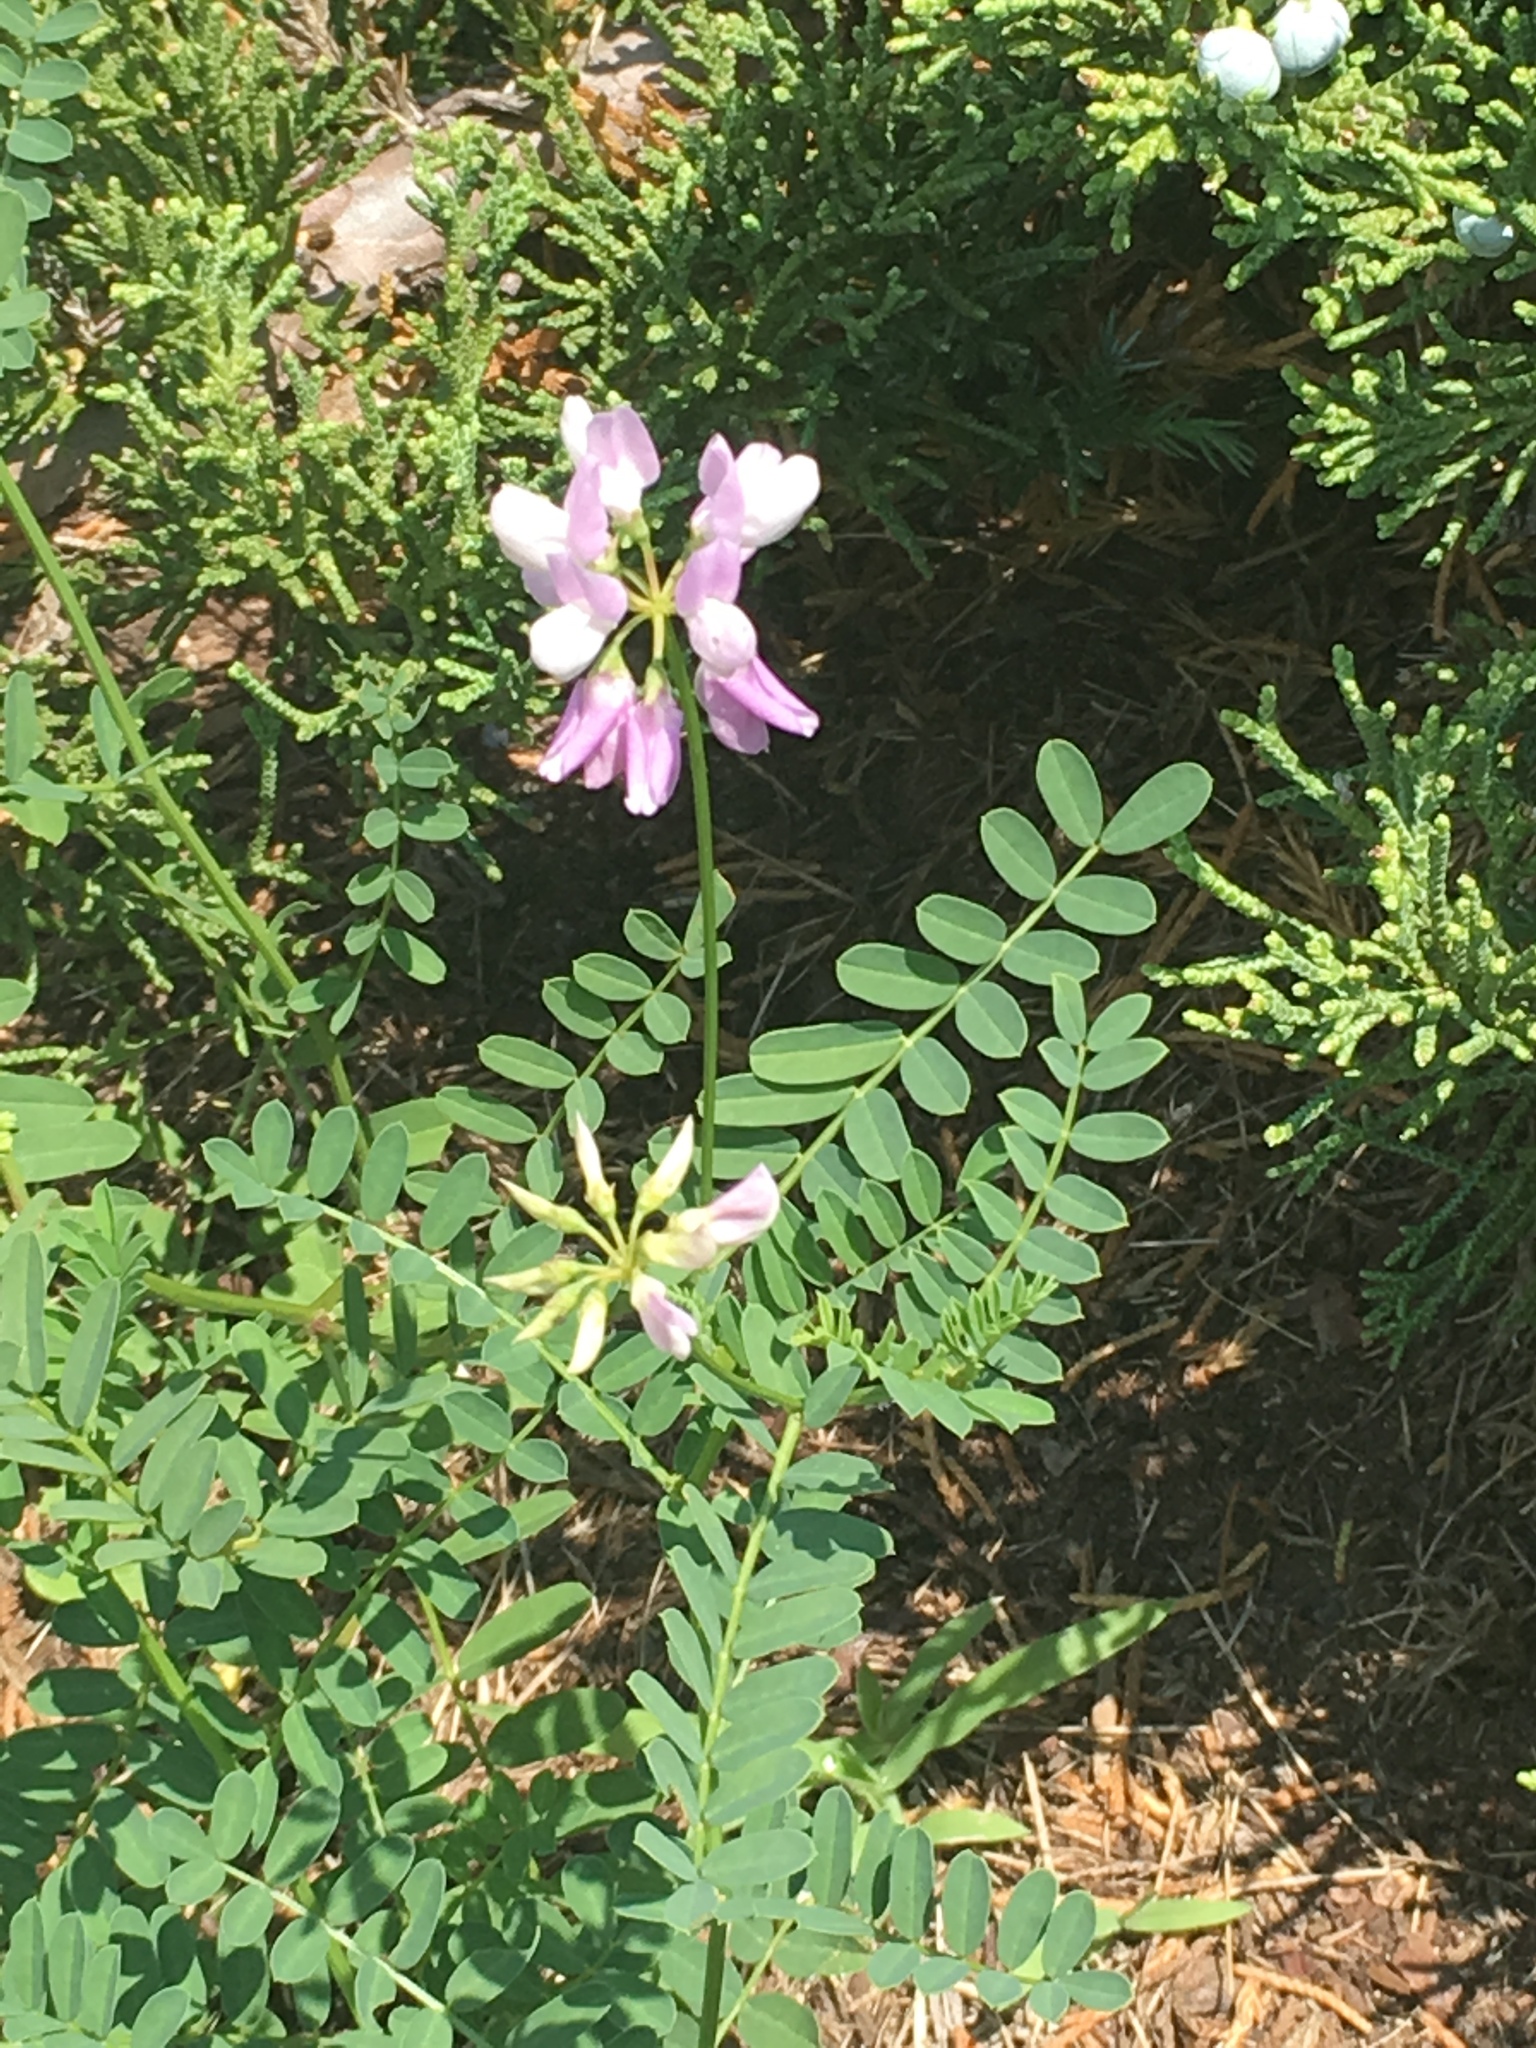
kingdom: Plantae
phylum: Tracheophyta
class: Magnoliopsida
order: Fabales
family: Fabaceae
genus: Coronilla
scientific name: Coronilla varia
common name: Crownvetch
